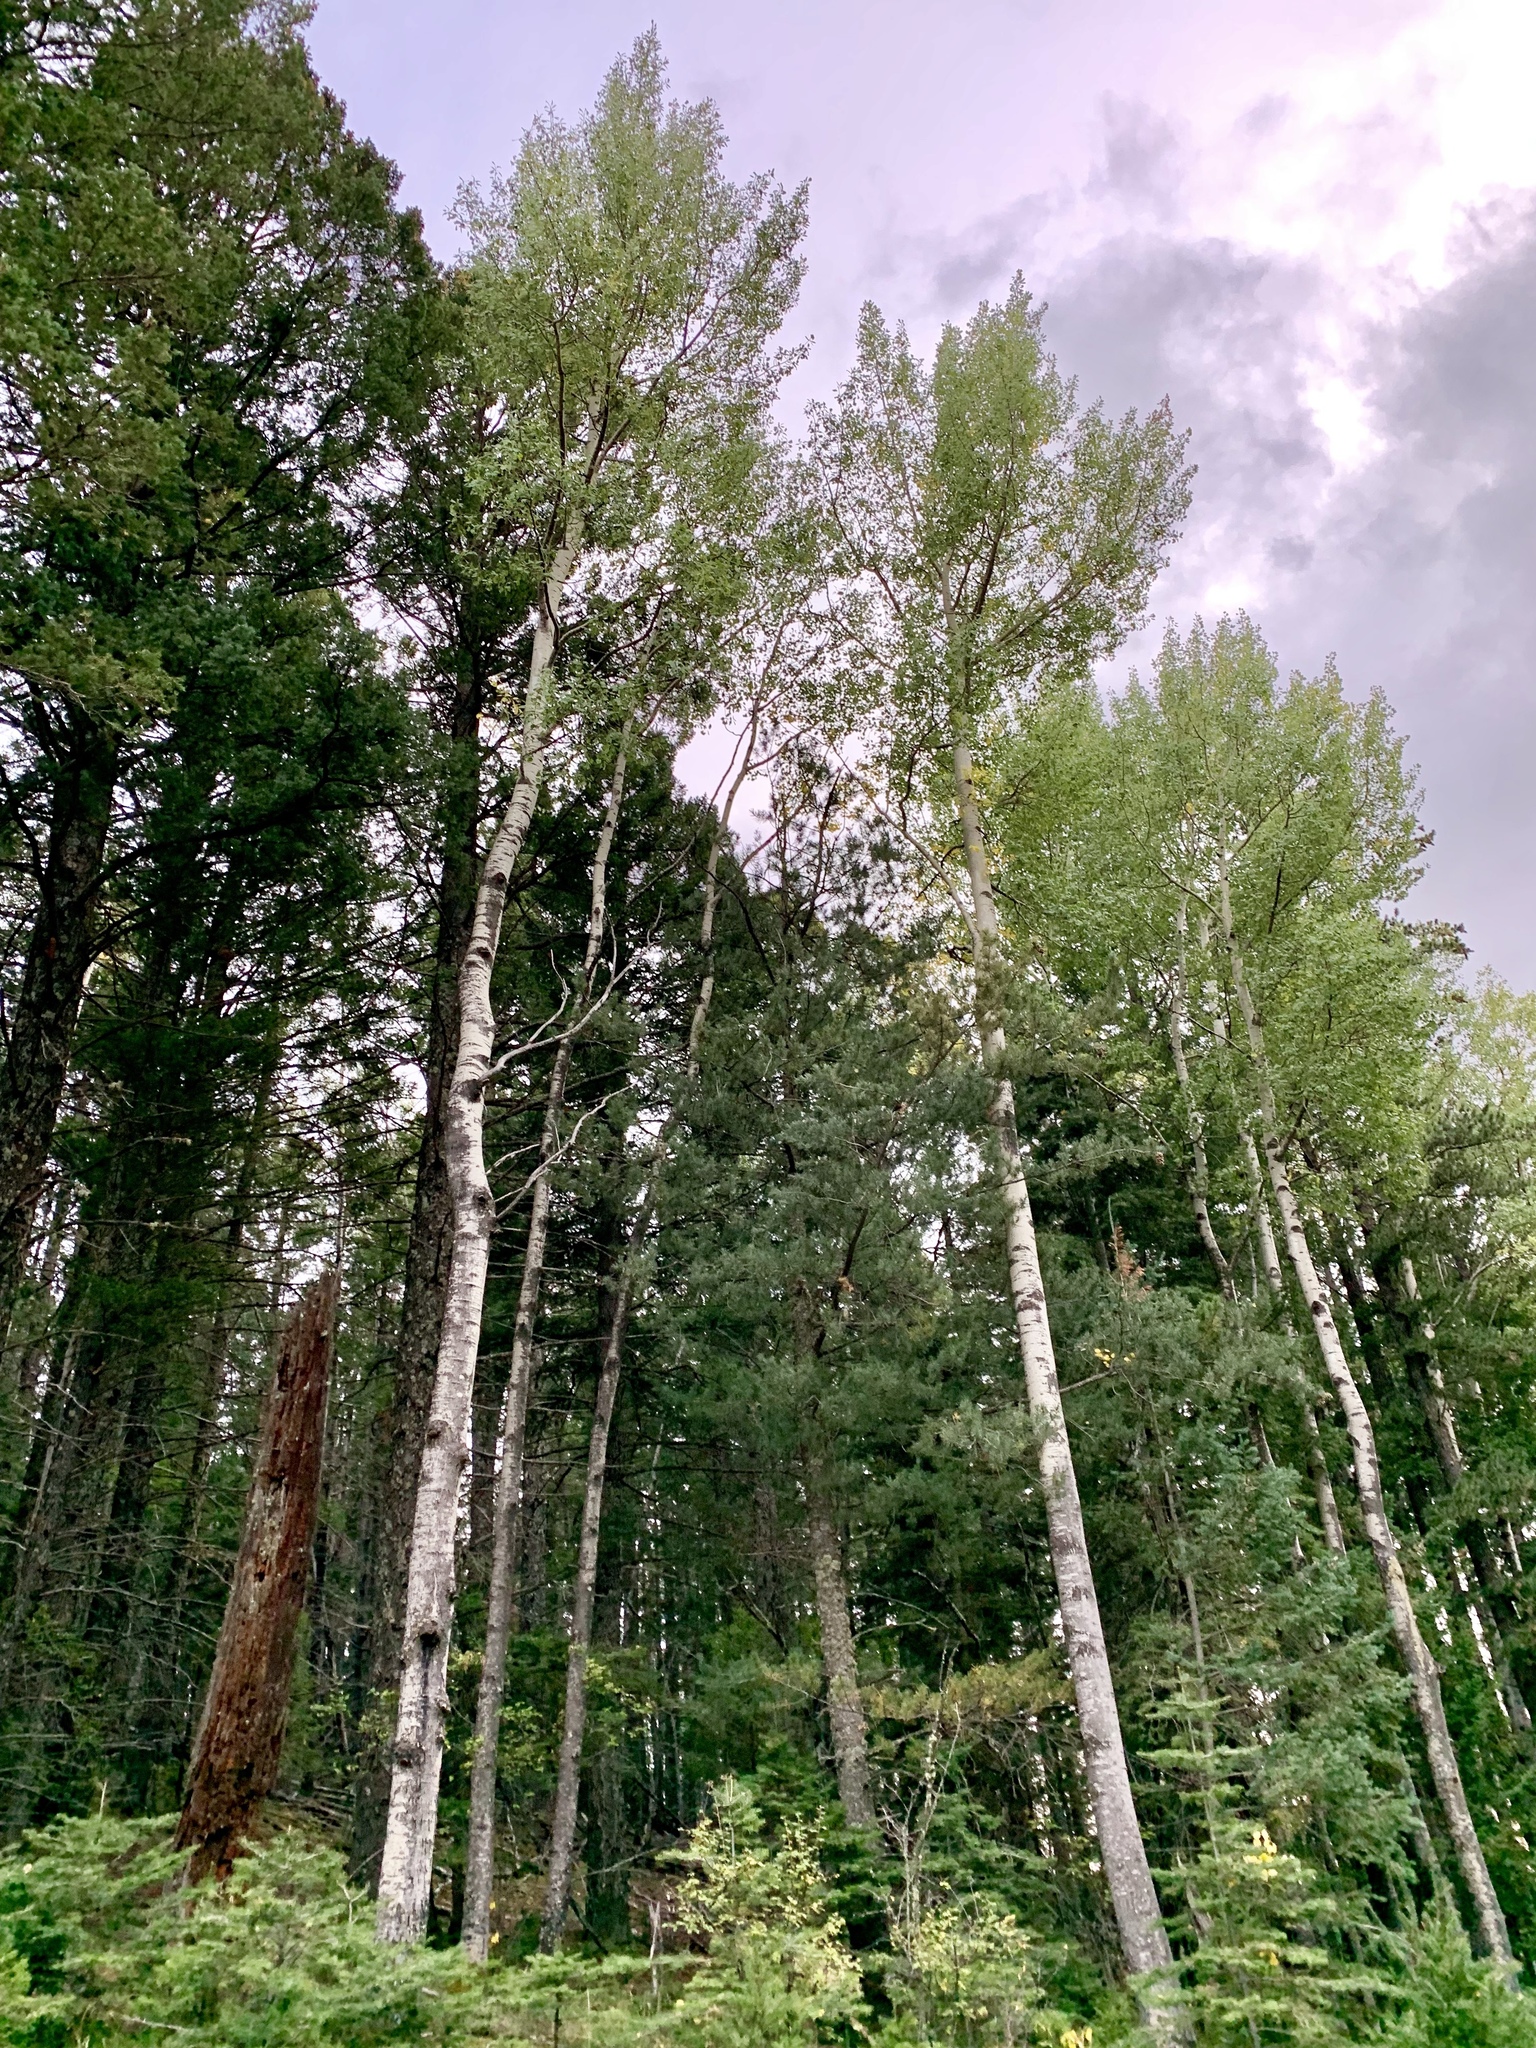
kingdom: Plantae
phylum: Tracheophyta
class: Magnoliopsida
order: Malpighiales
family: Salicaceae
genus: Populus
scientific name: Populus tremuloides
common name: Quaking aspen
